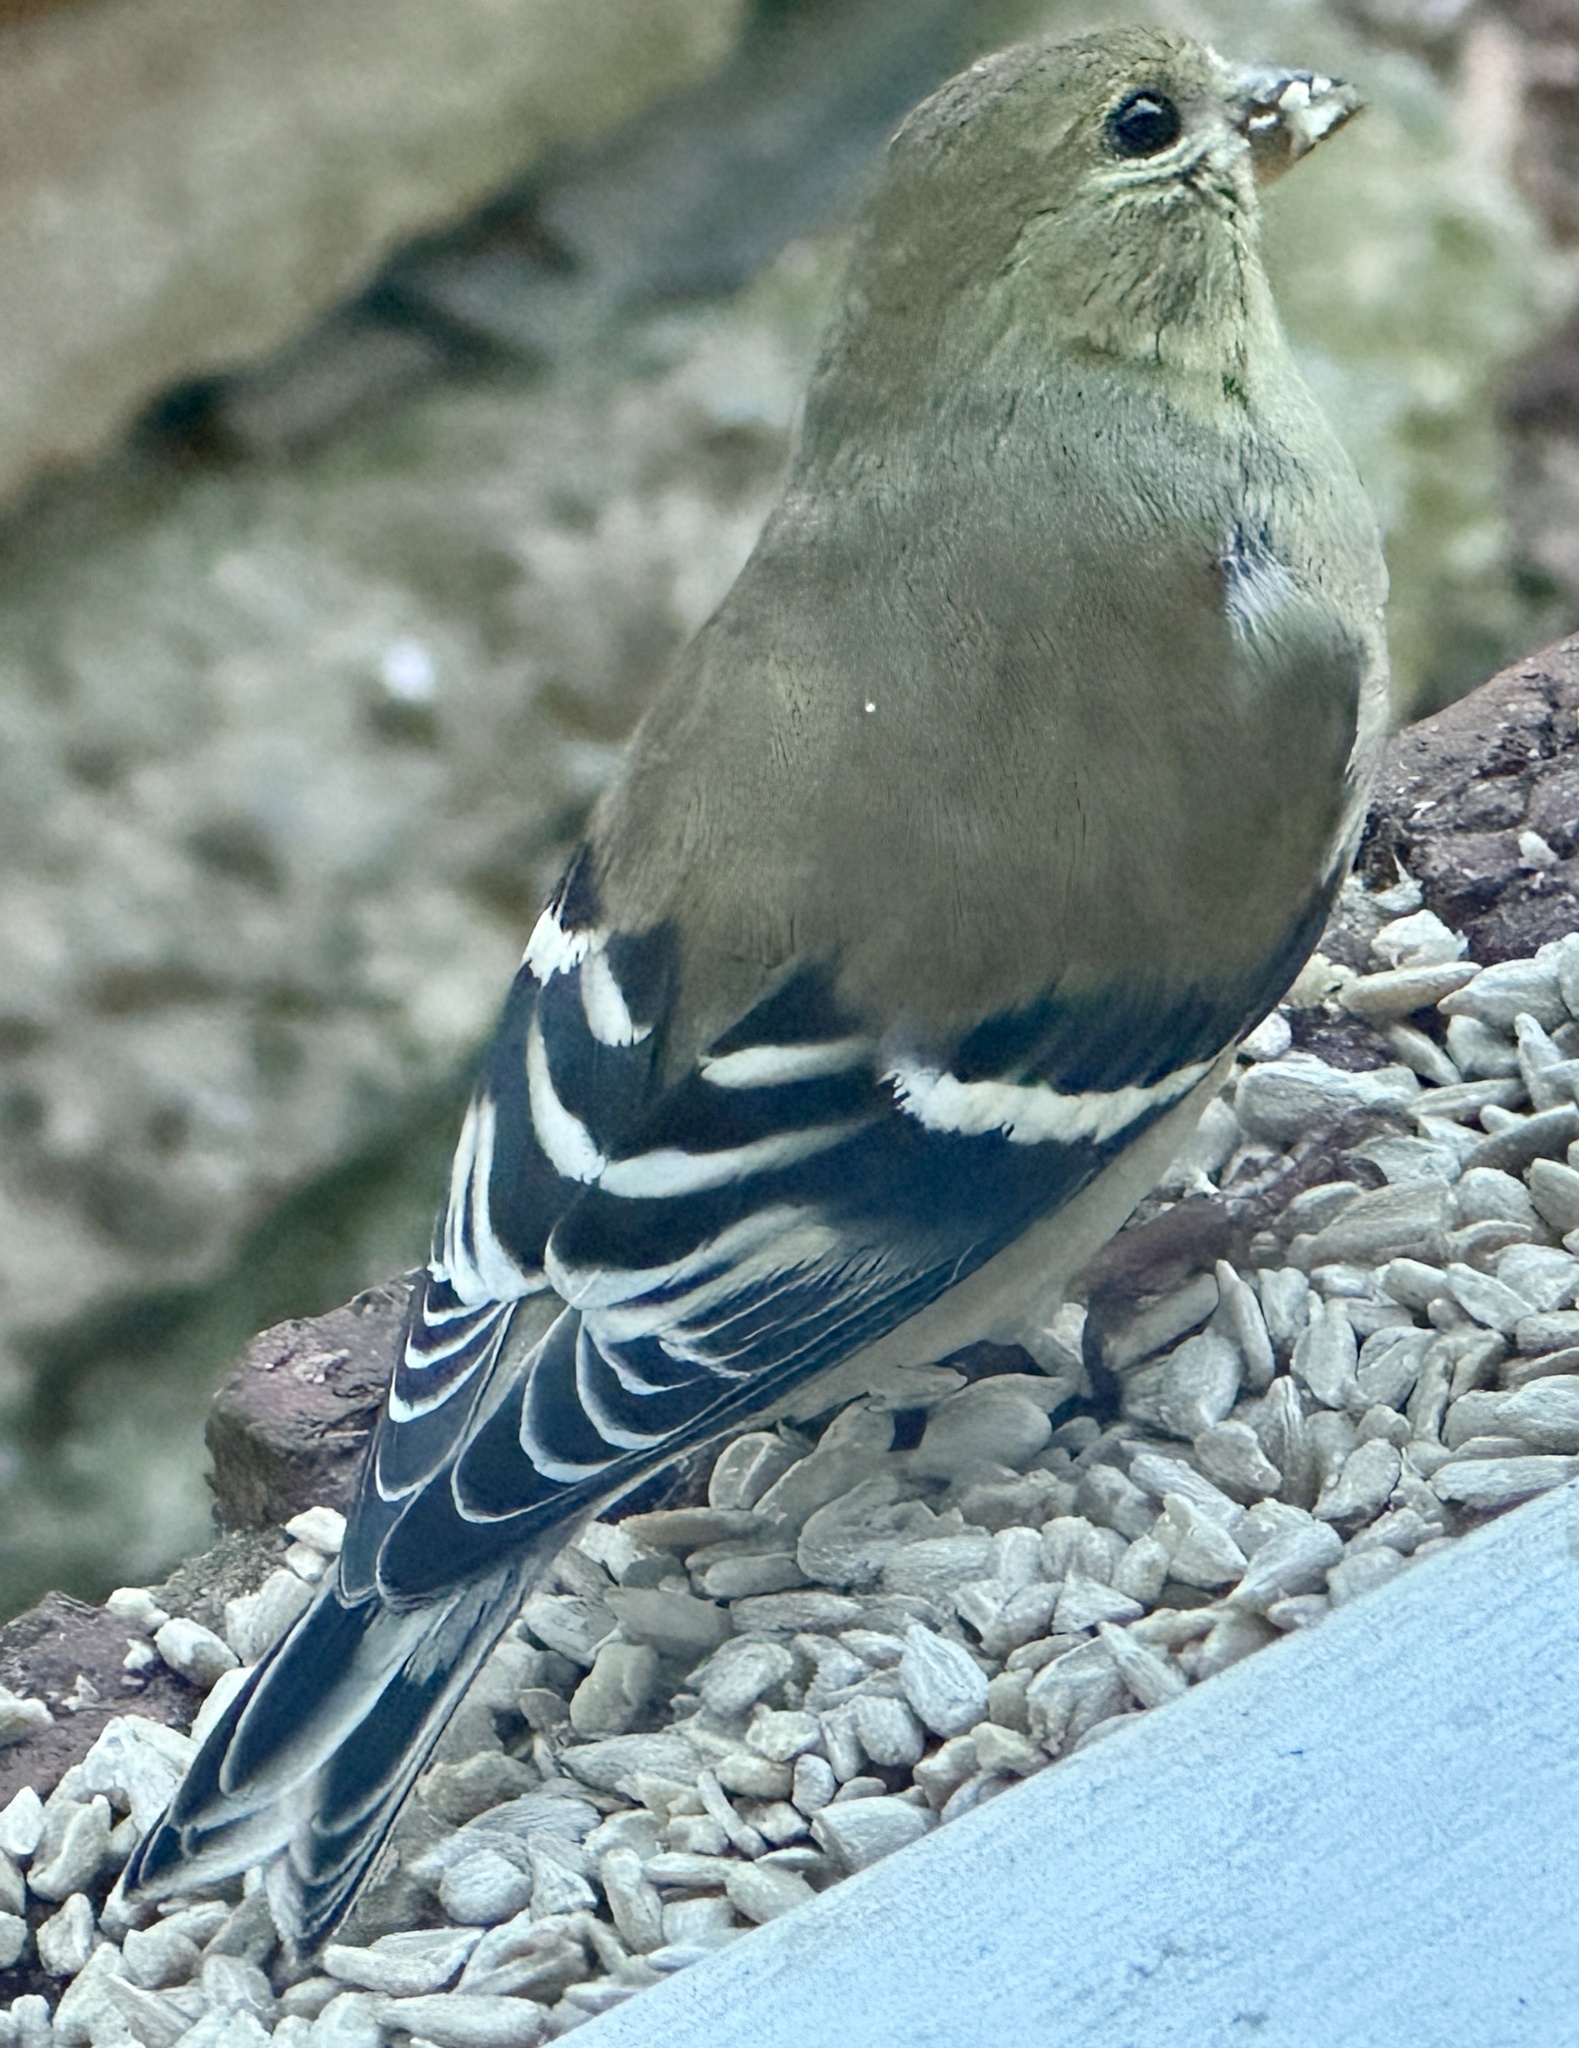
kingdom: Animalia
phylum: Chordata
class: Aves
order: Passeriformes
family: Fringillidae
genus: Spinus
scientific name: Spinus tristis
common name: American goldfinch
